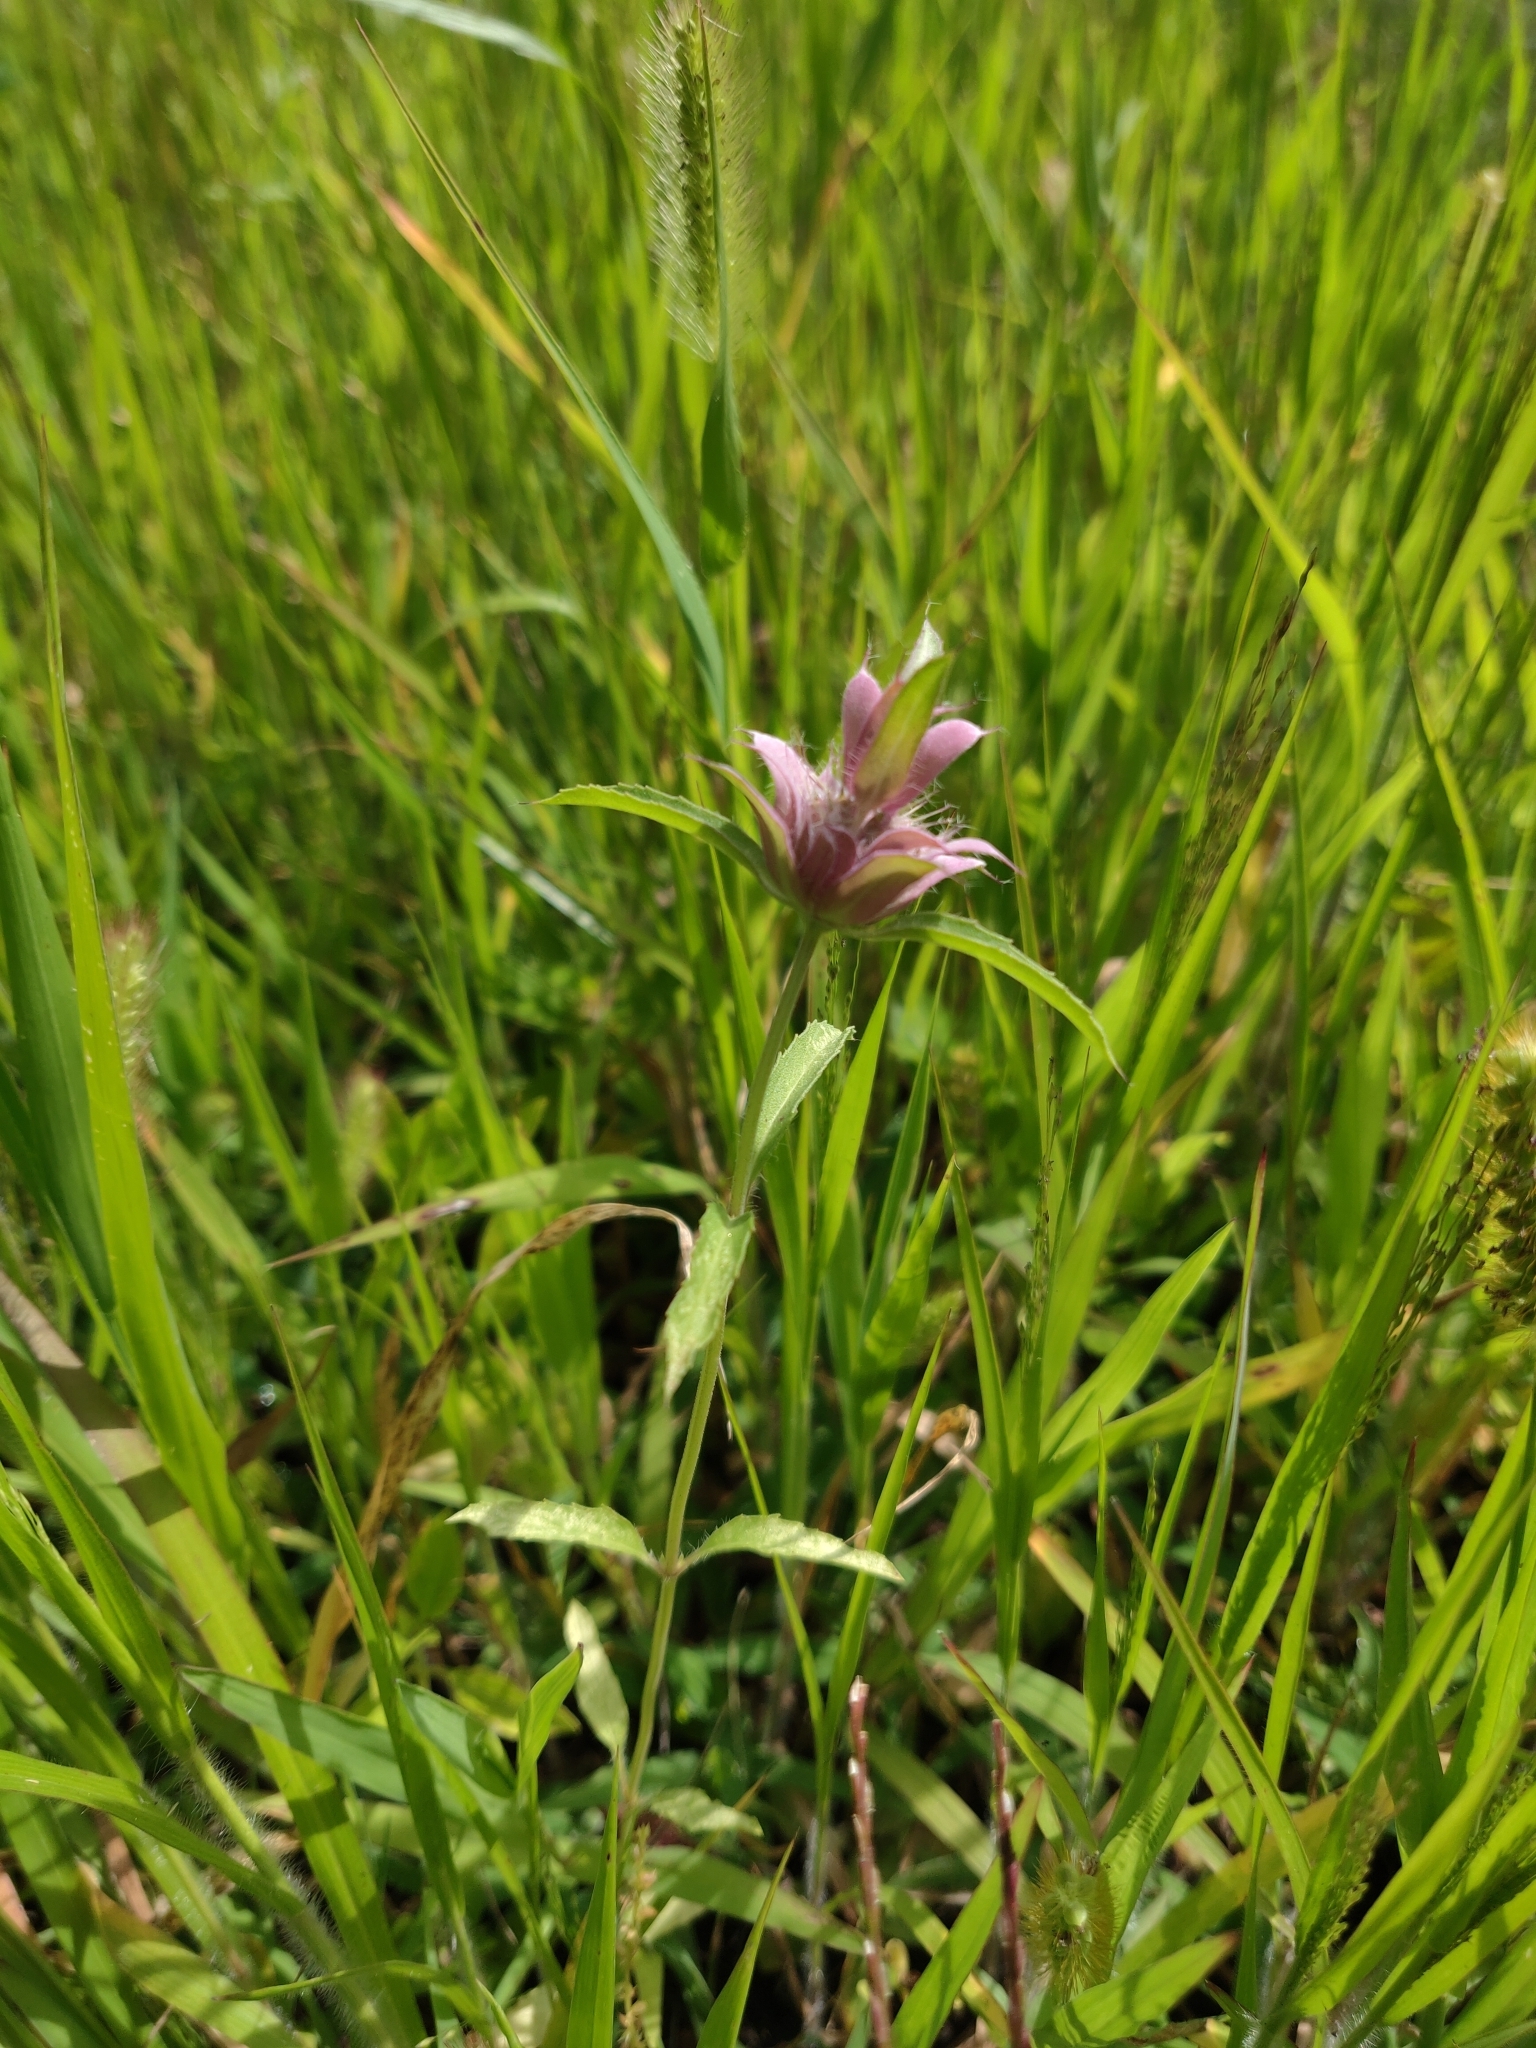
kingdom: Plantae
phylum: Tracheophyta
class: Magnoliopsida
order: Lamiales
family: Lamiaceae
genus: Monarda
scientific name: Monarda citriodora
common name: Lemon beebalm
